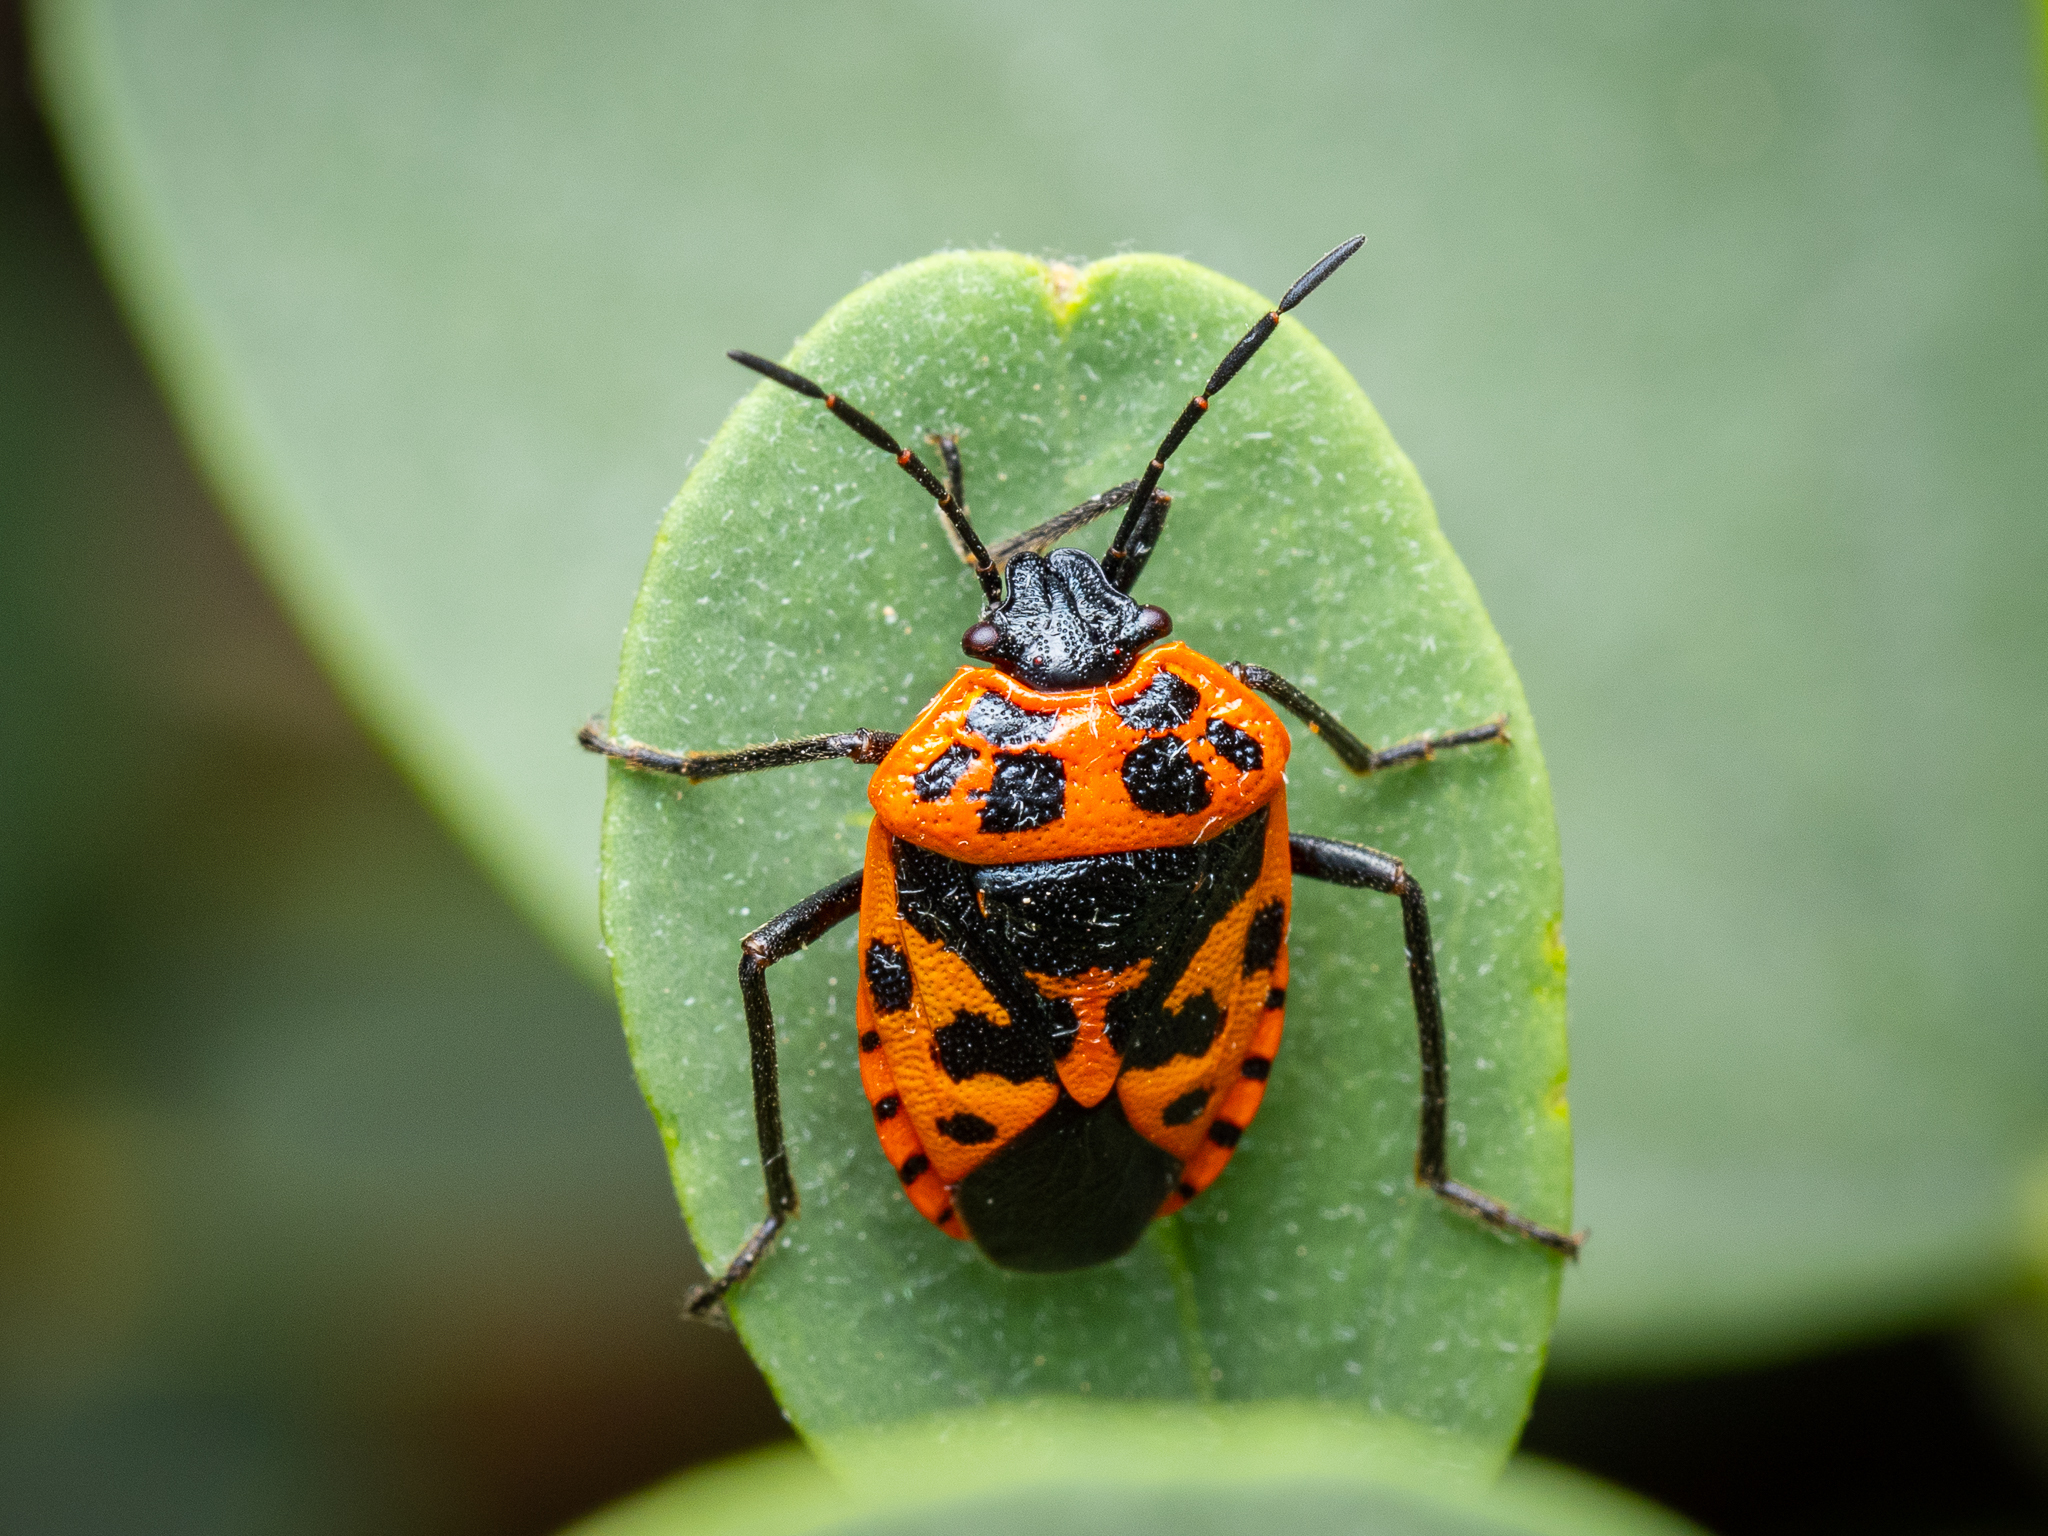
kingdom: Animalia
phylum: Arthropoda
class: Insecta
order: Hemiptera
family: Pentatomidae
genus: Eurydema
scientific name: Eurydema eckerleini
